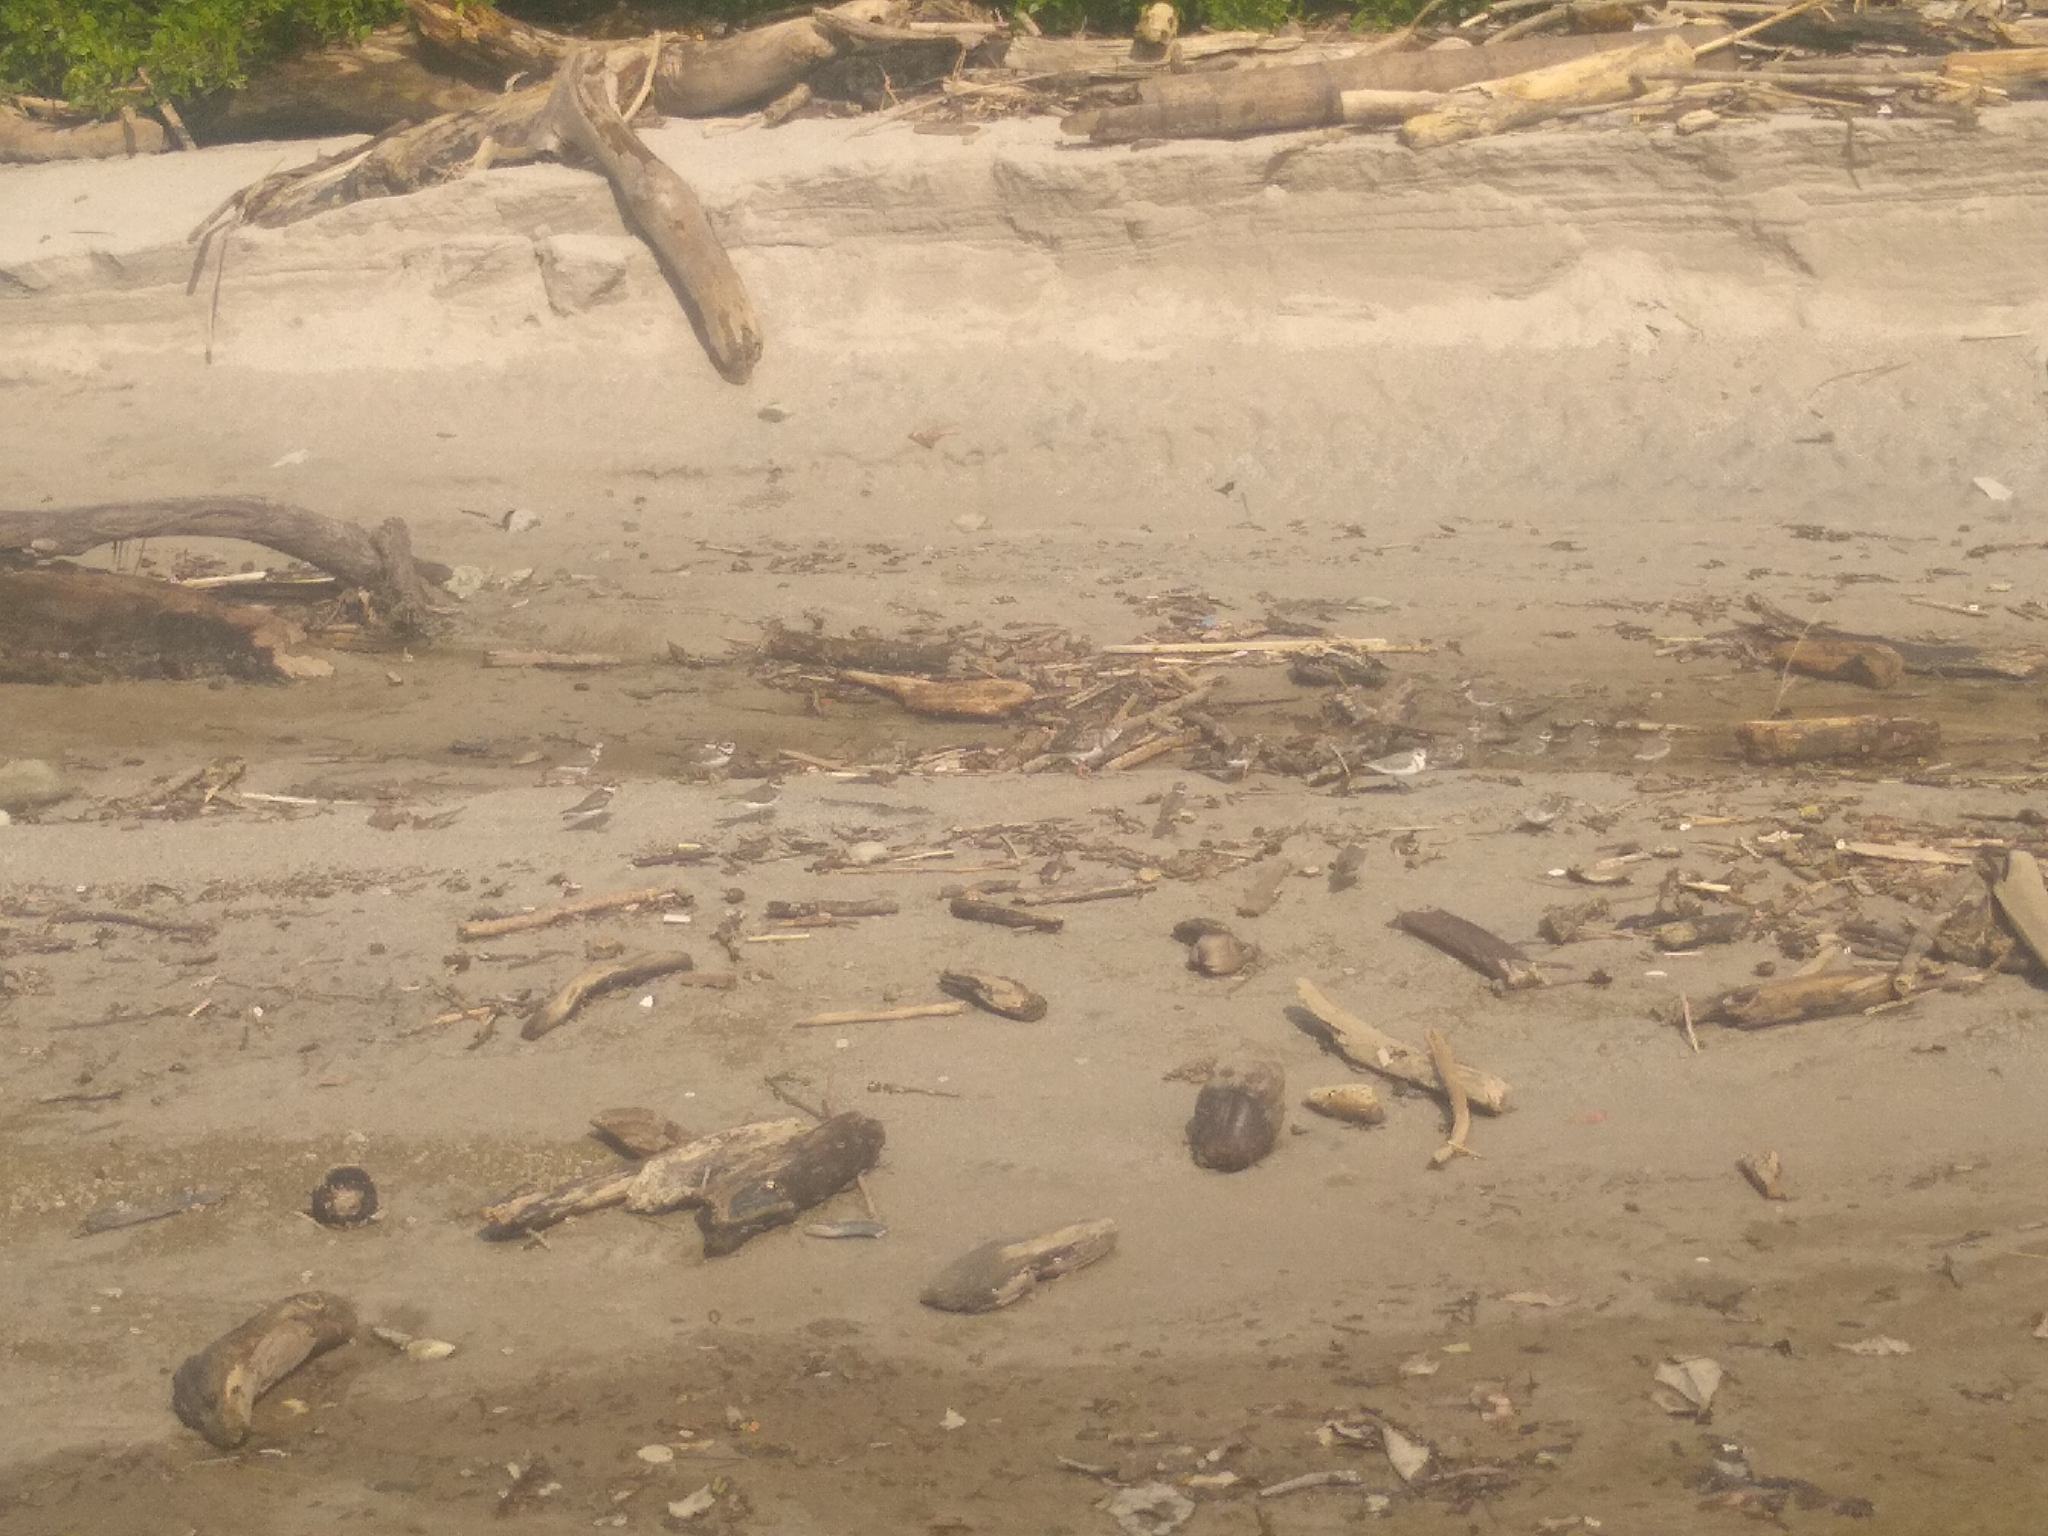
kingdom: Animalia
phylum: Chordata
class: Aves
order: Charadriiformes
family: Scolopacidae
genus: Calidris
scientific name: Calidris alba
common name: Sanderling
